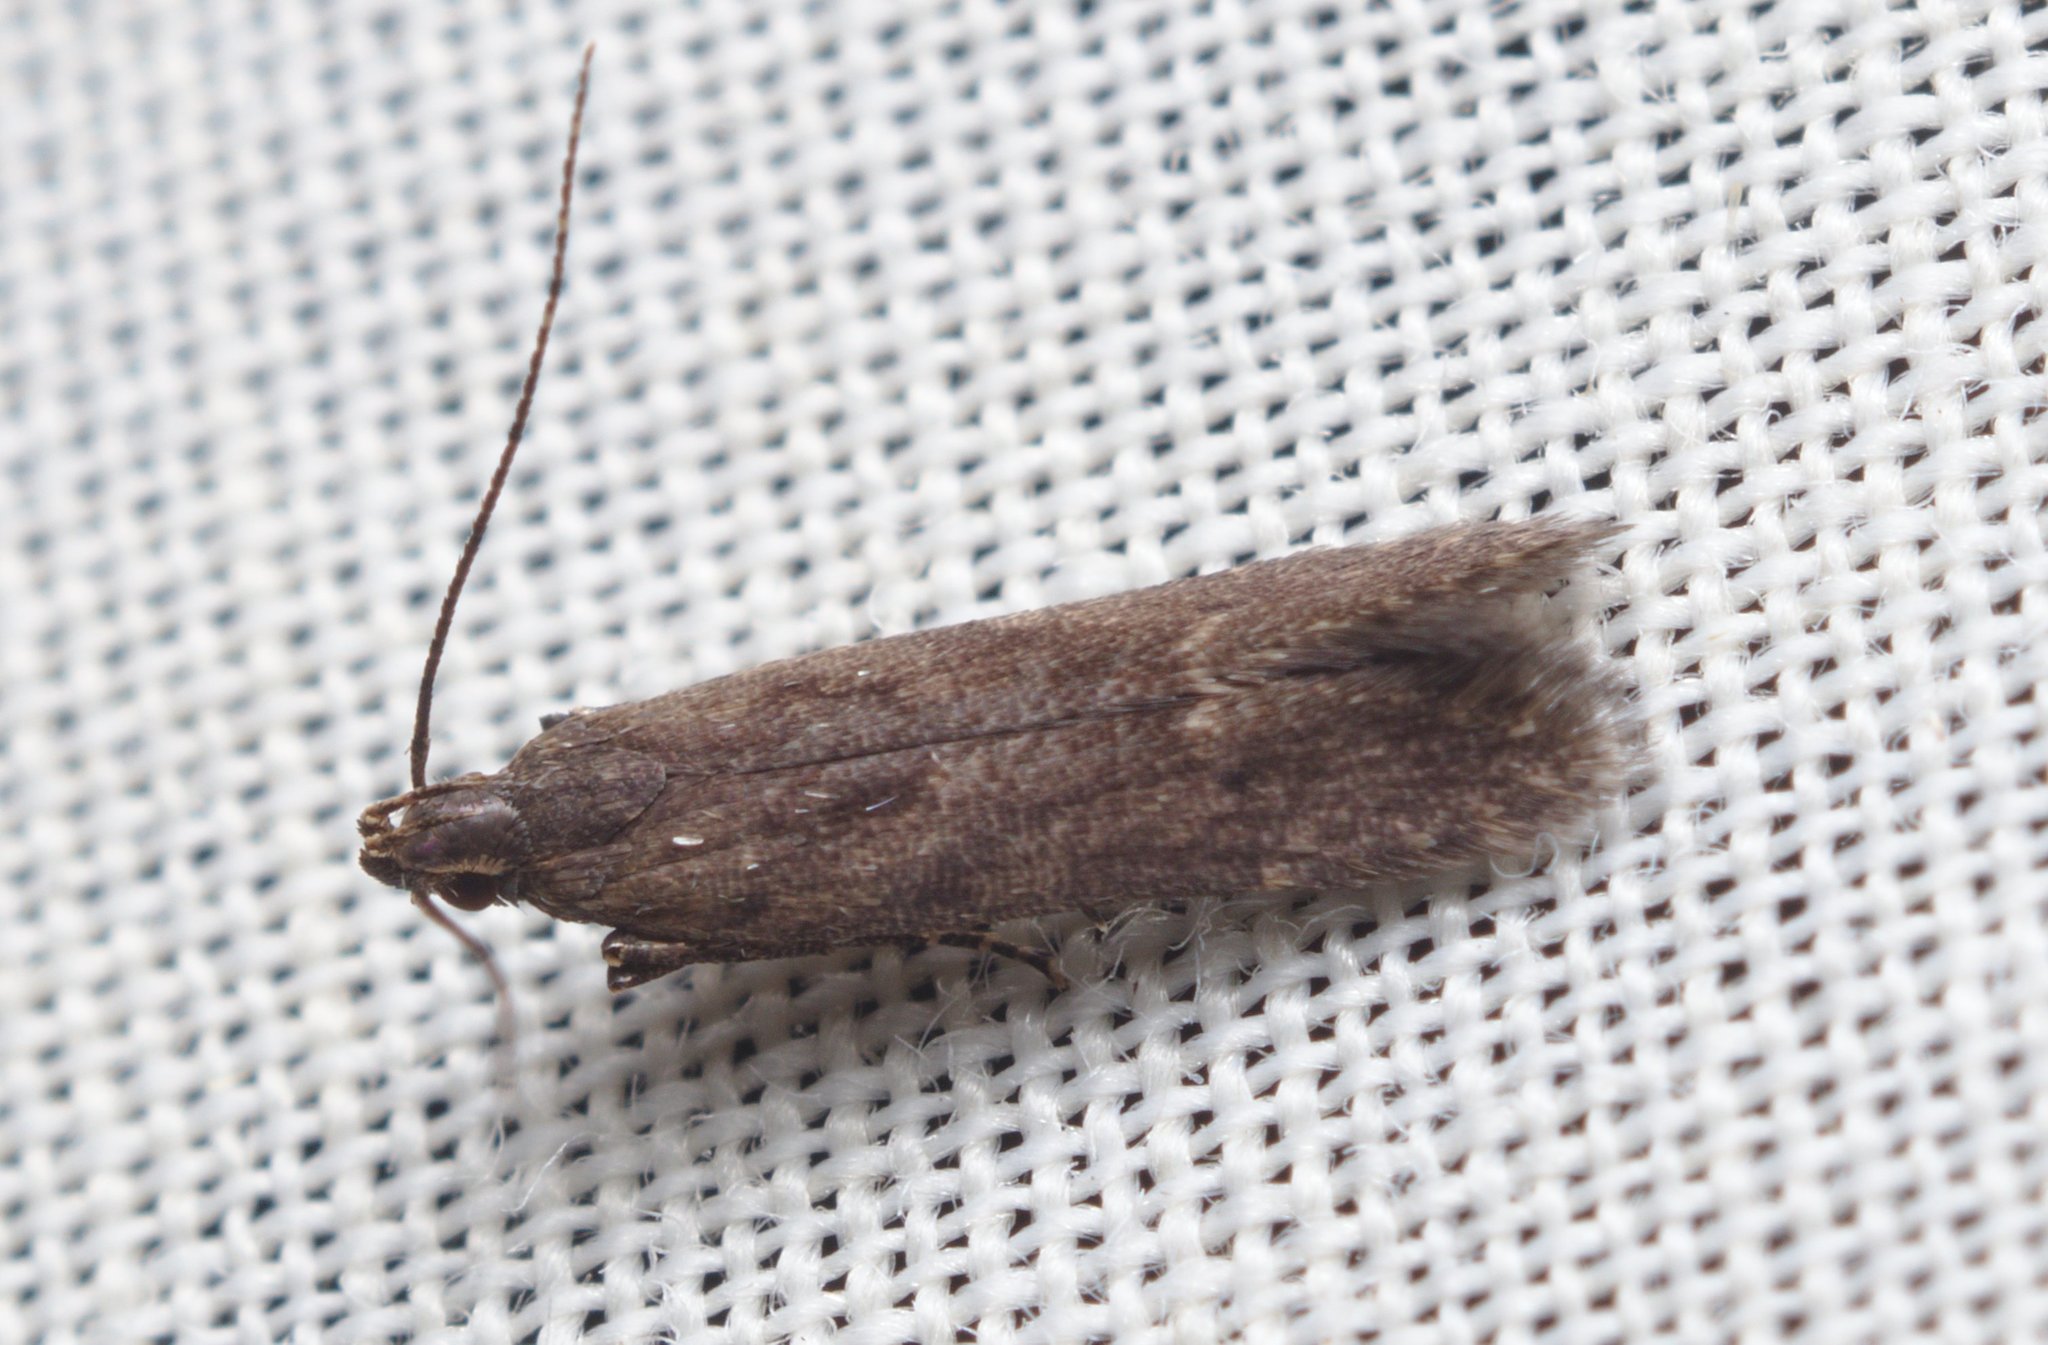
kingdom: Animalia
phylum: Arthropoda
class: Insecta
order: Lepidoptera
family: Gelechiidae
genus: Monochroa
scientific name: Monochroa
